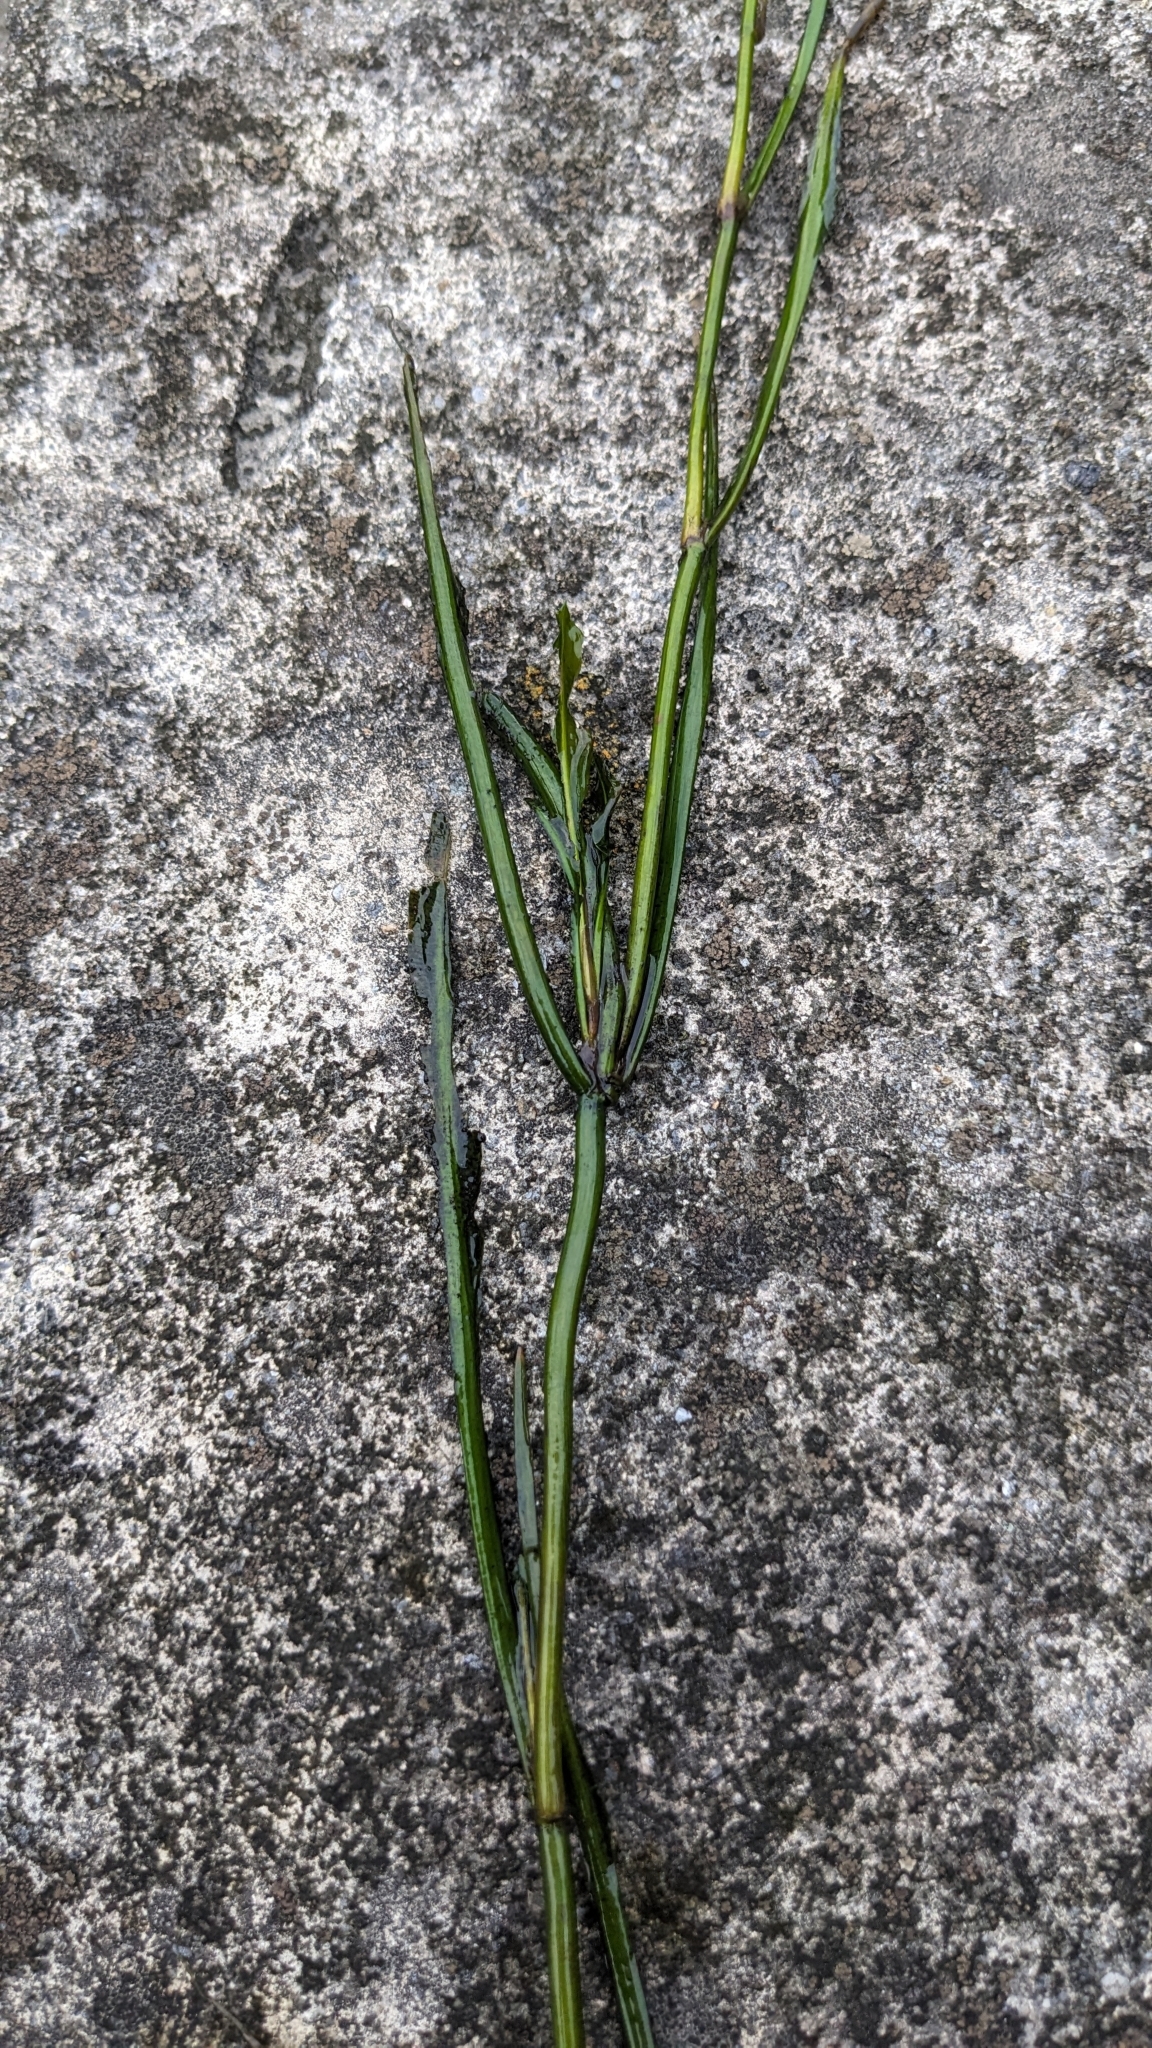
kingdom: Plantae
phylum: Tracheophyta
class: Liliopsida
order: Alismatales
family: Potamogetonaceae
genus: Potamogeton
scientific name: Potamogeton wrightii
